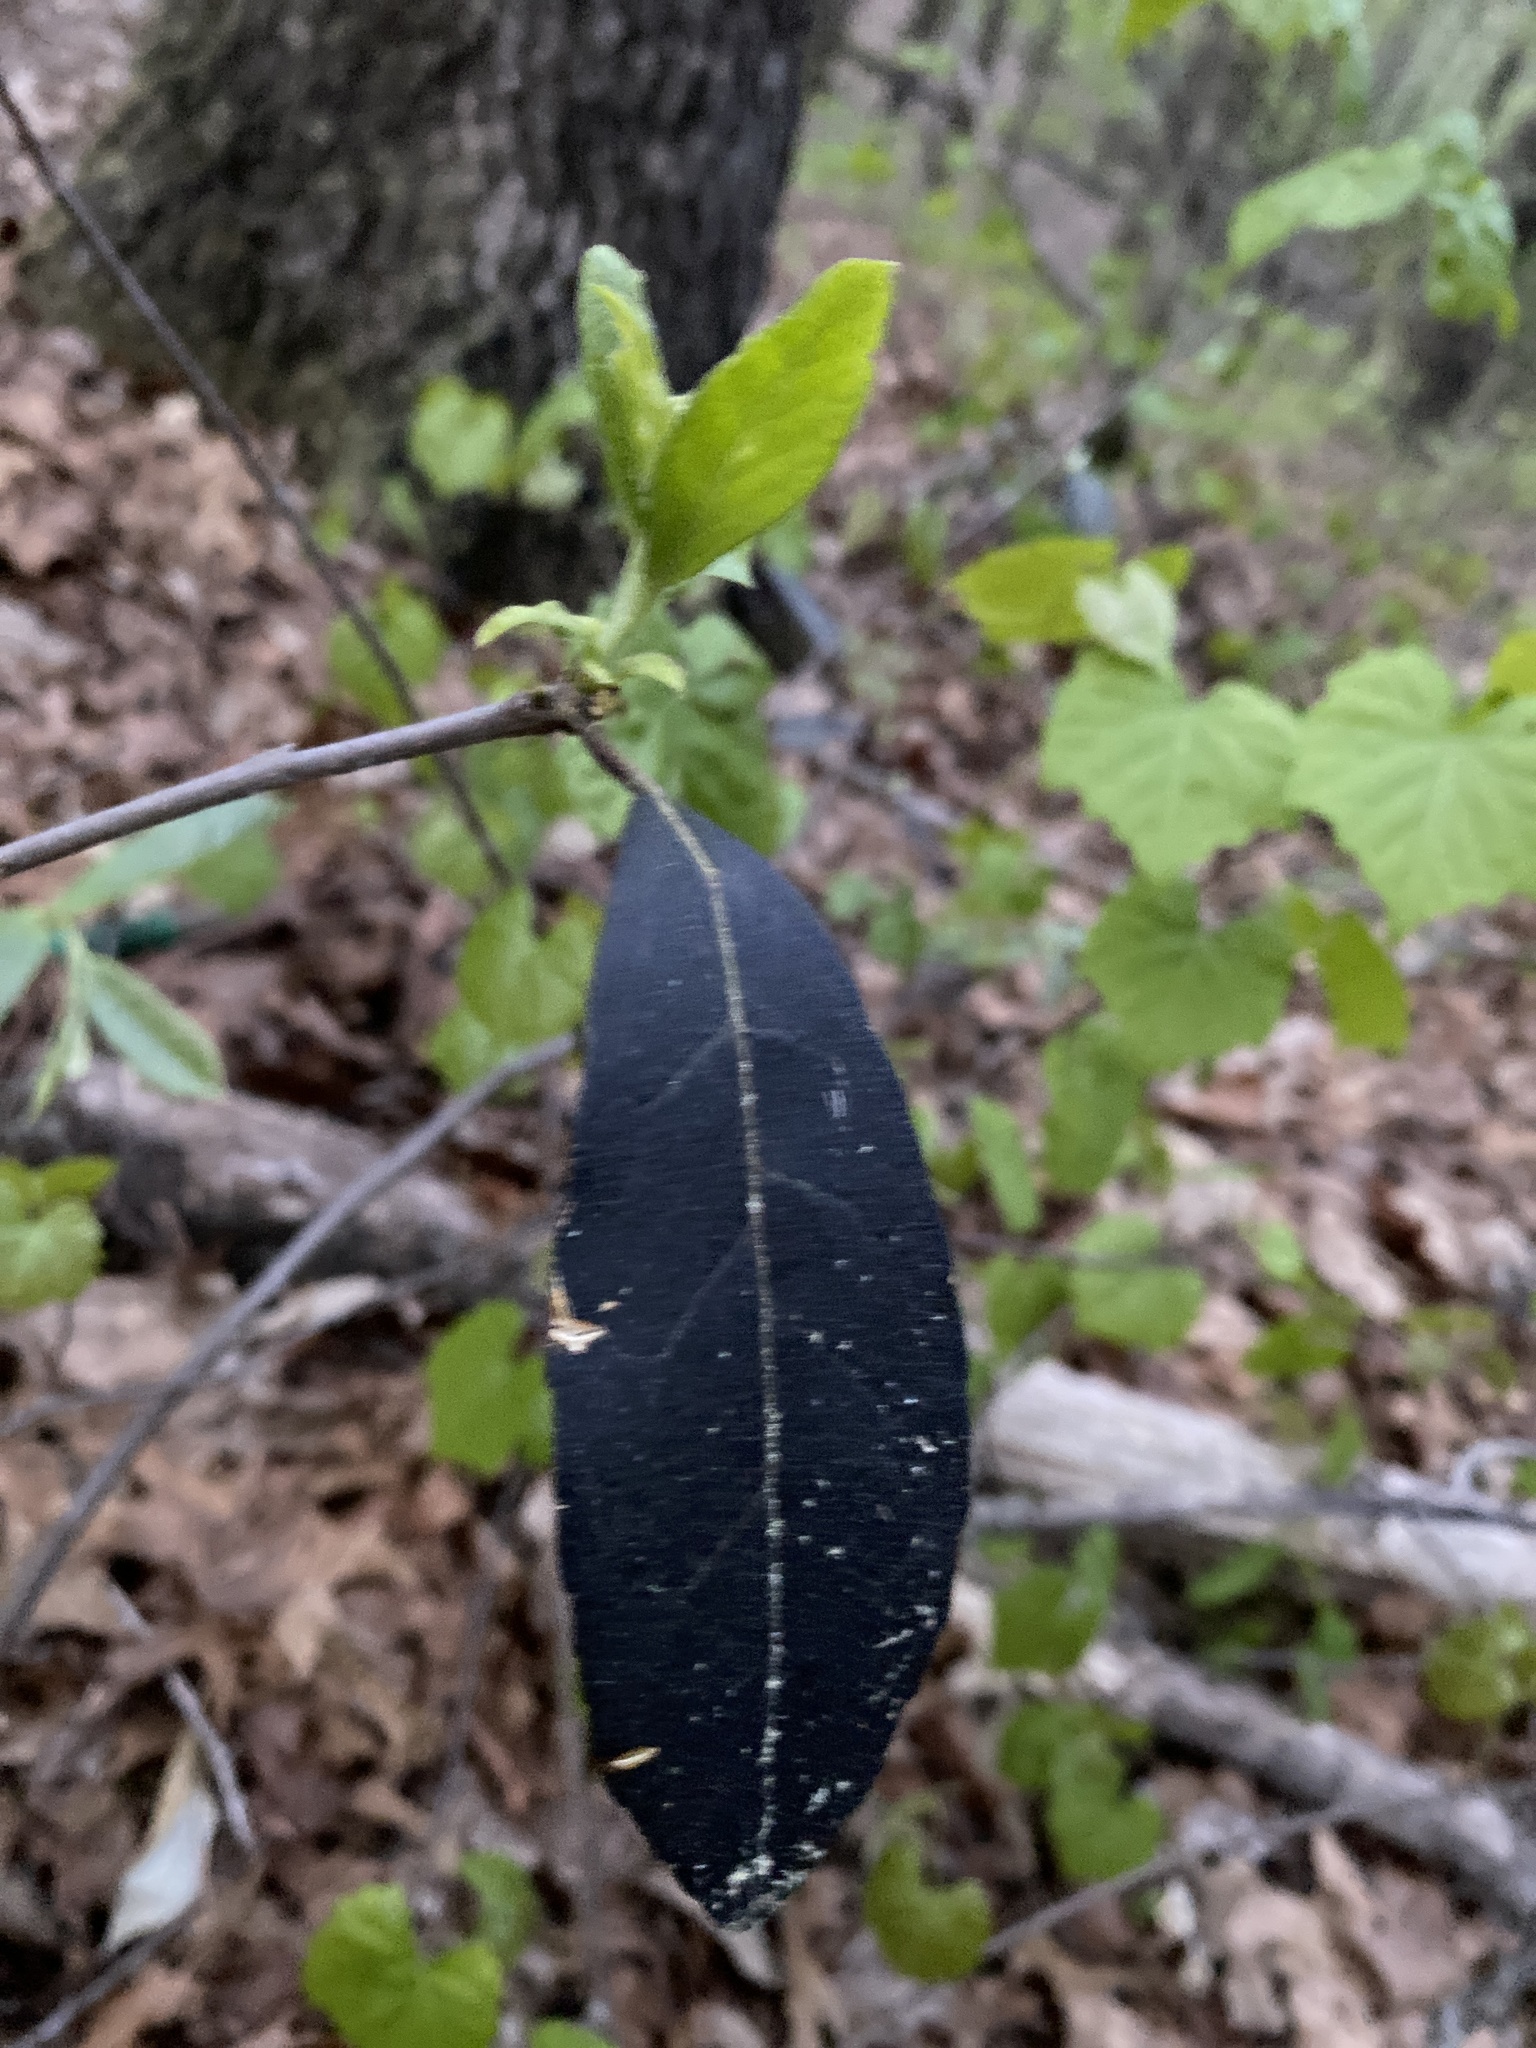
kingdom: Plantae
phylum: Tracheophyta
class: Magnoliopsida
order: Ericales
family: Symplocaceae
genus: Symplocos
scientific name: Symplocos tinctoria
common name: Horse-sugar
